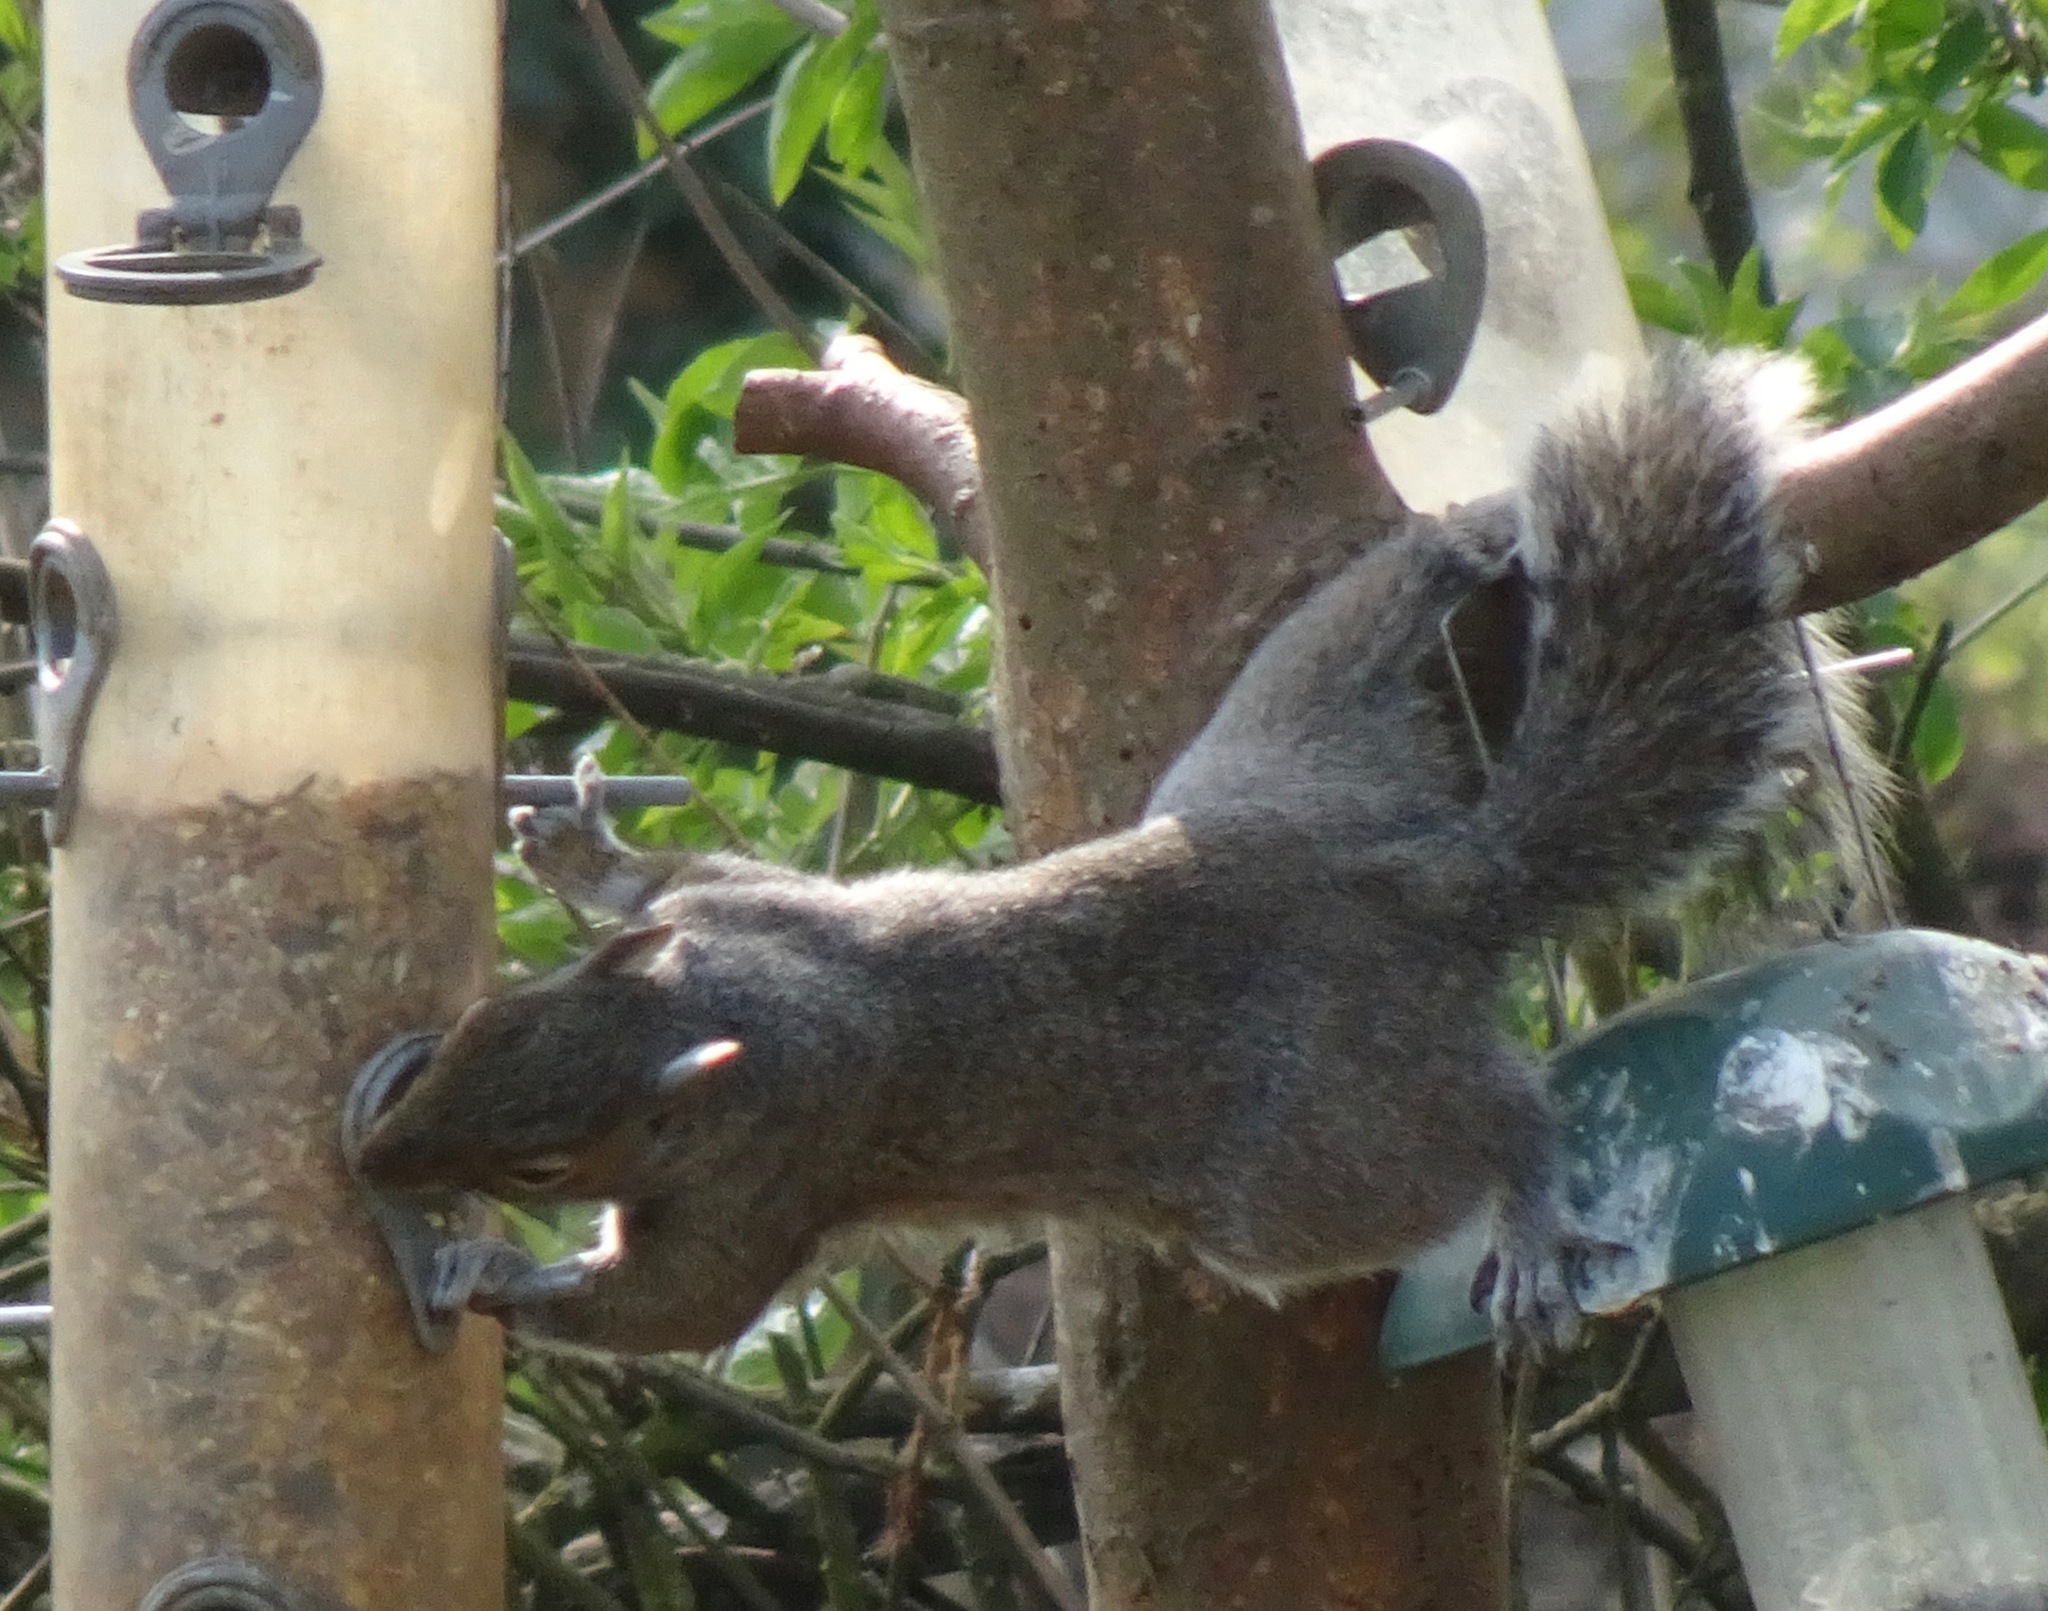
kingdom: Animalia
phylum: Chordata
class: Mammalia
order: Rodentia
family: Sciuridae
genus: Sciurus
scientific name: Sciurus carolinensis
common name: Eastern gray squirrel
